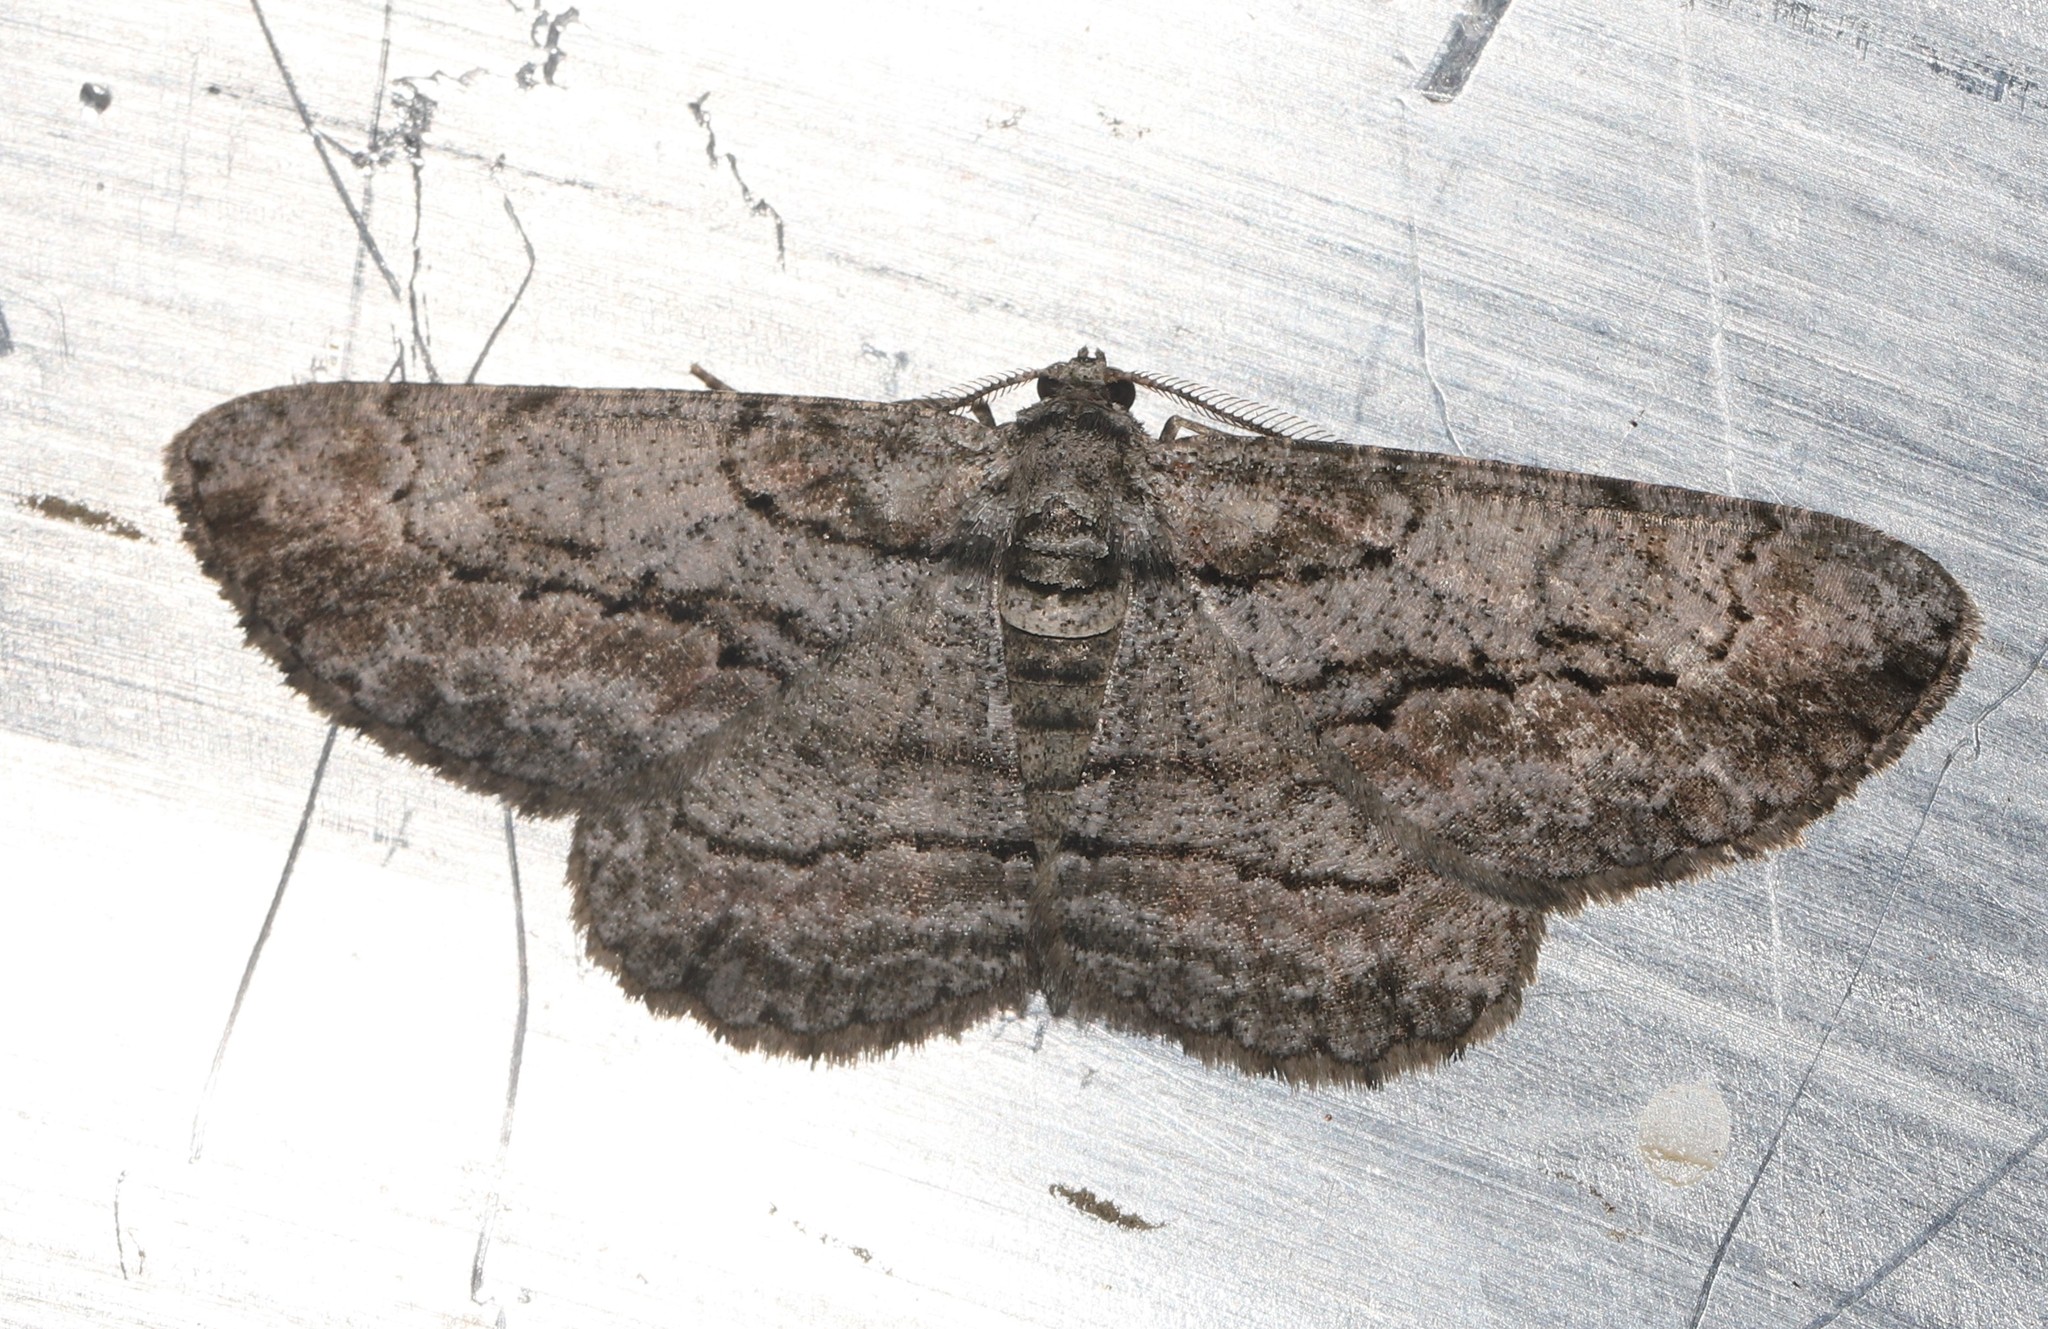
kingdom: Animalia
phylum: Arthropoda
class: Insecta
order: Lepidoptera
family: Geometridae
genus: Anavitrinella
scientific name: Anavitrinella pampinaria
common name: Common gray
